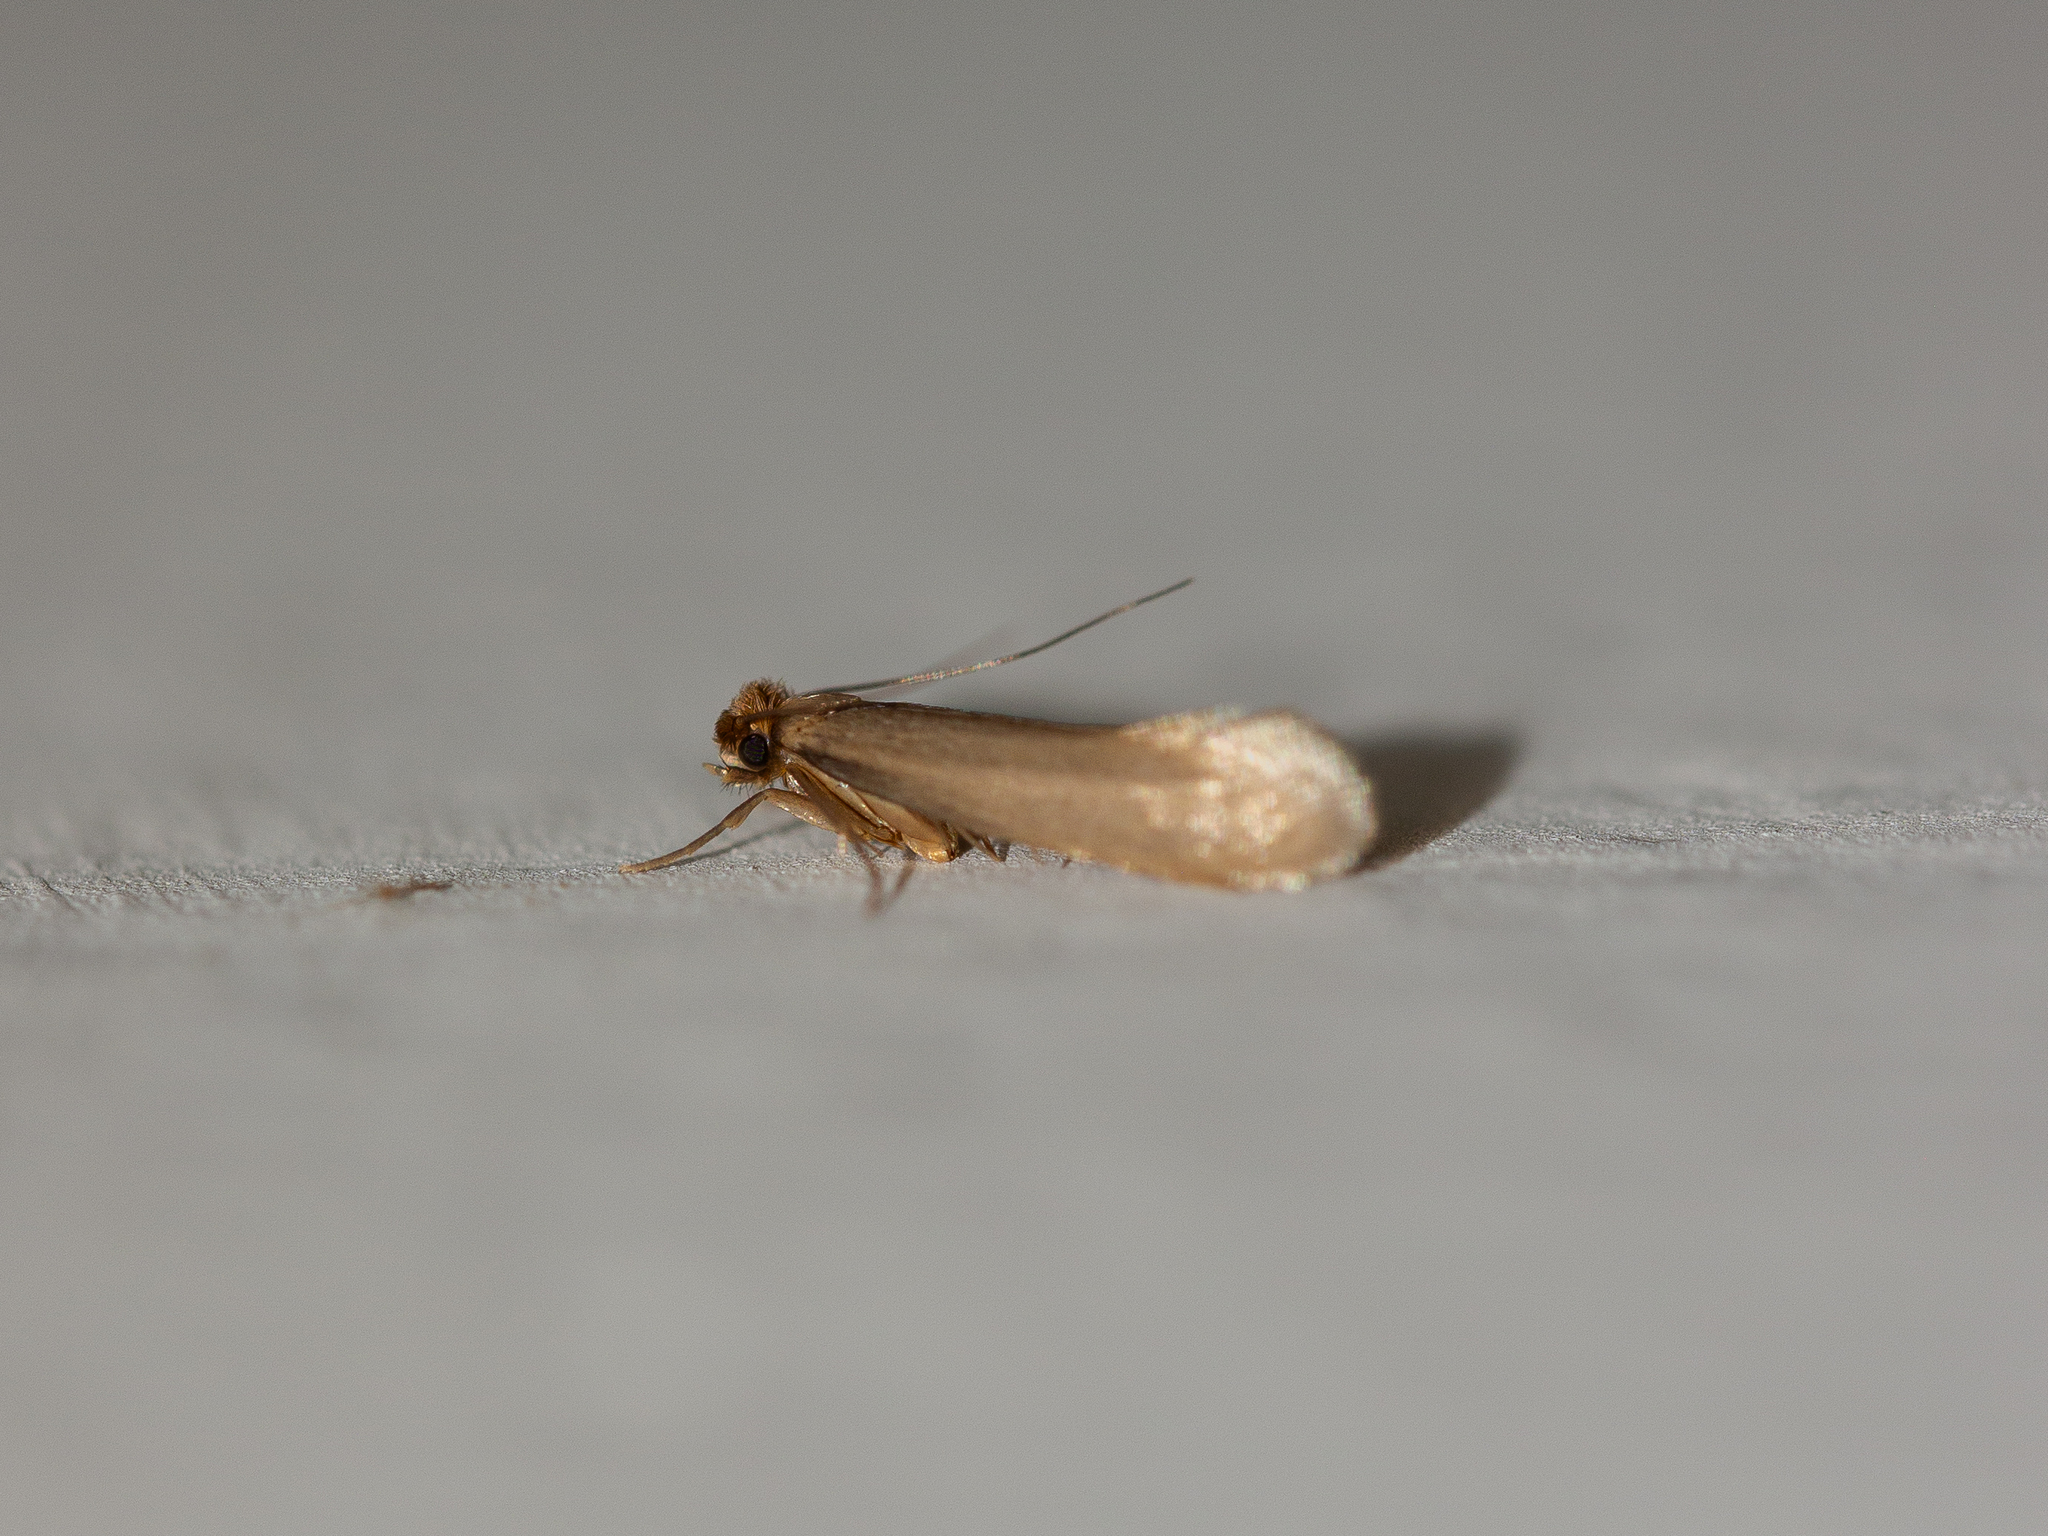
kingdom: Animalia
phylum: Arthropoda
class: Insecta
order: Lepidoptera
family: Tineidae
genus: Tineola
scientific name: Tineola bisselliella
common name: Webbing clothes moth
